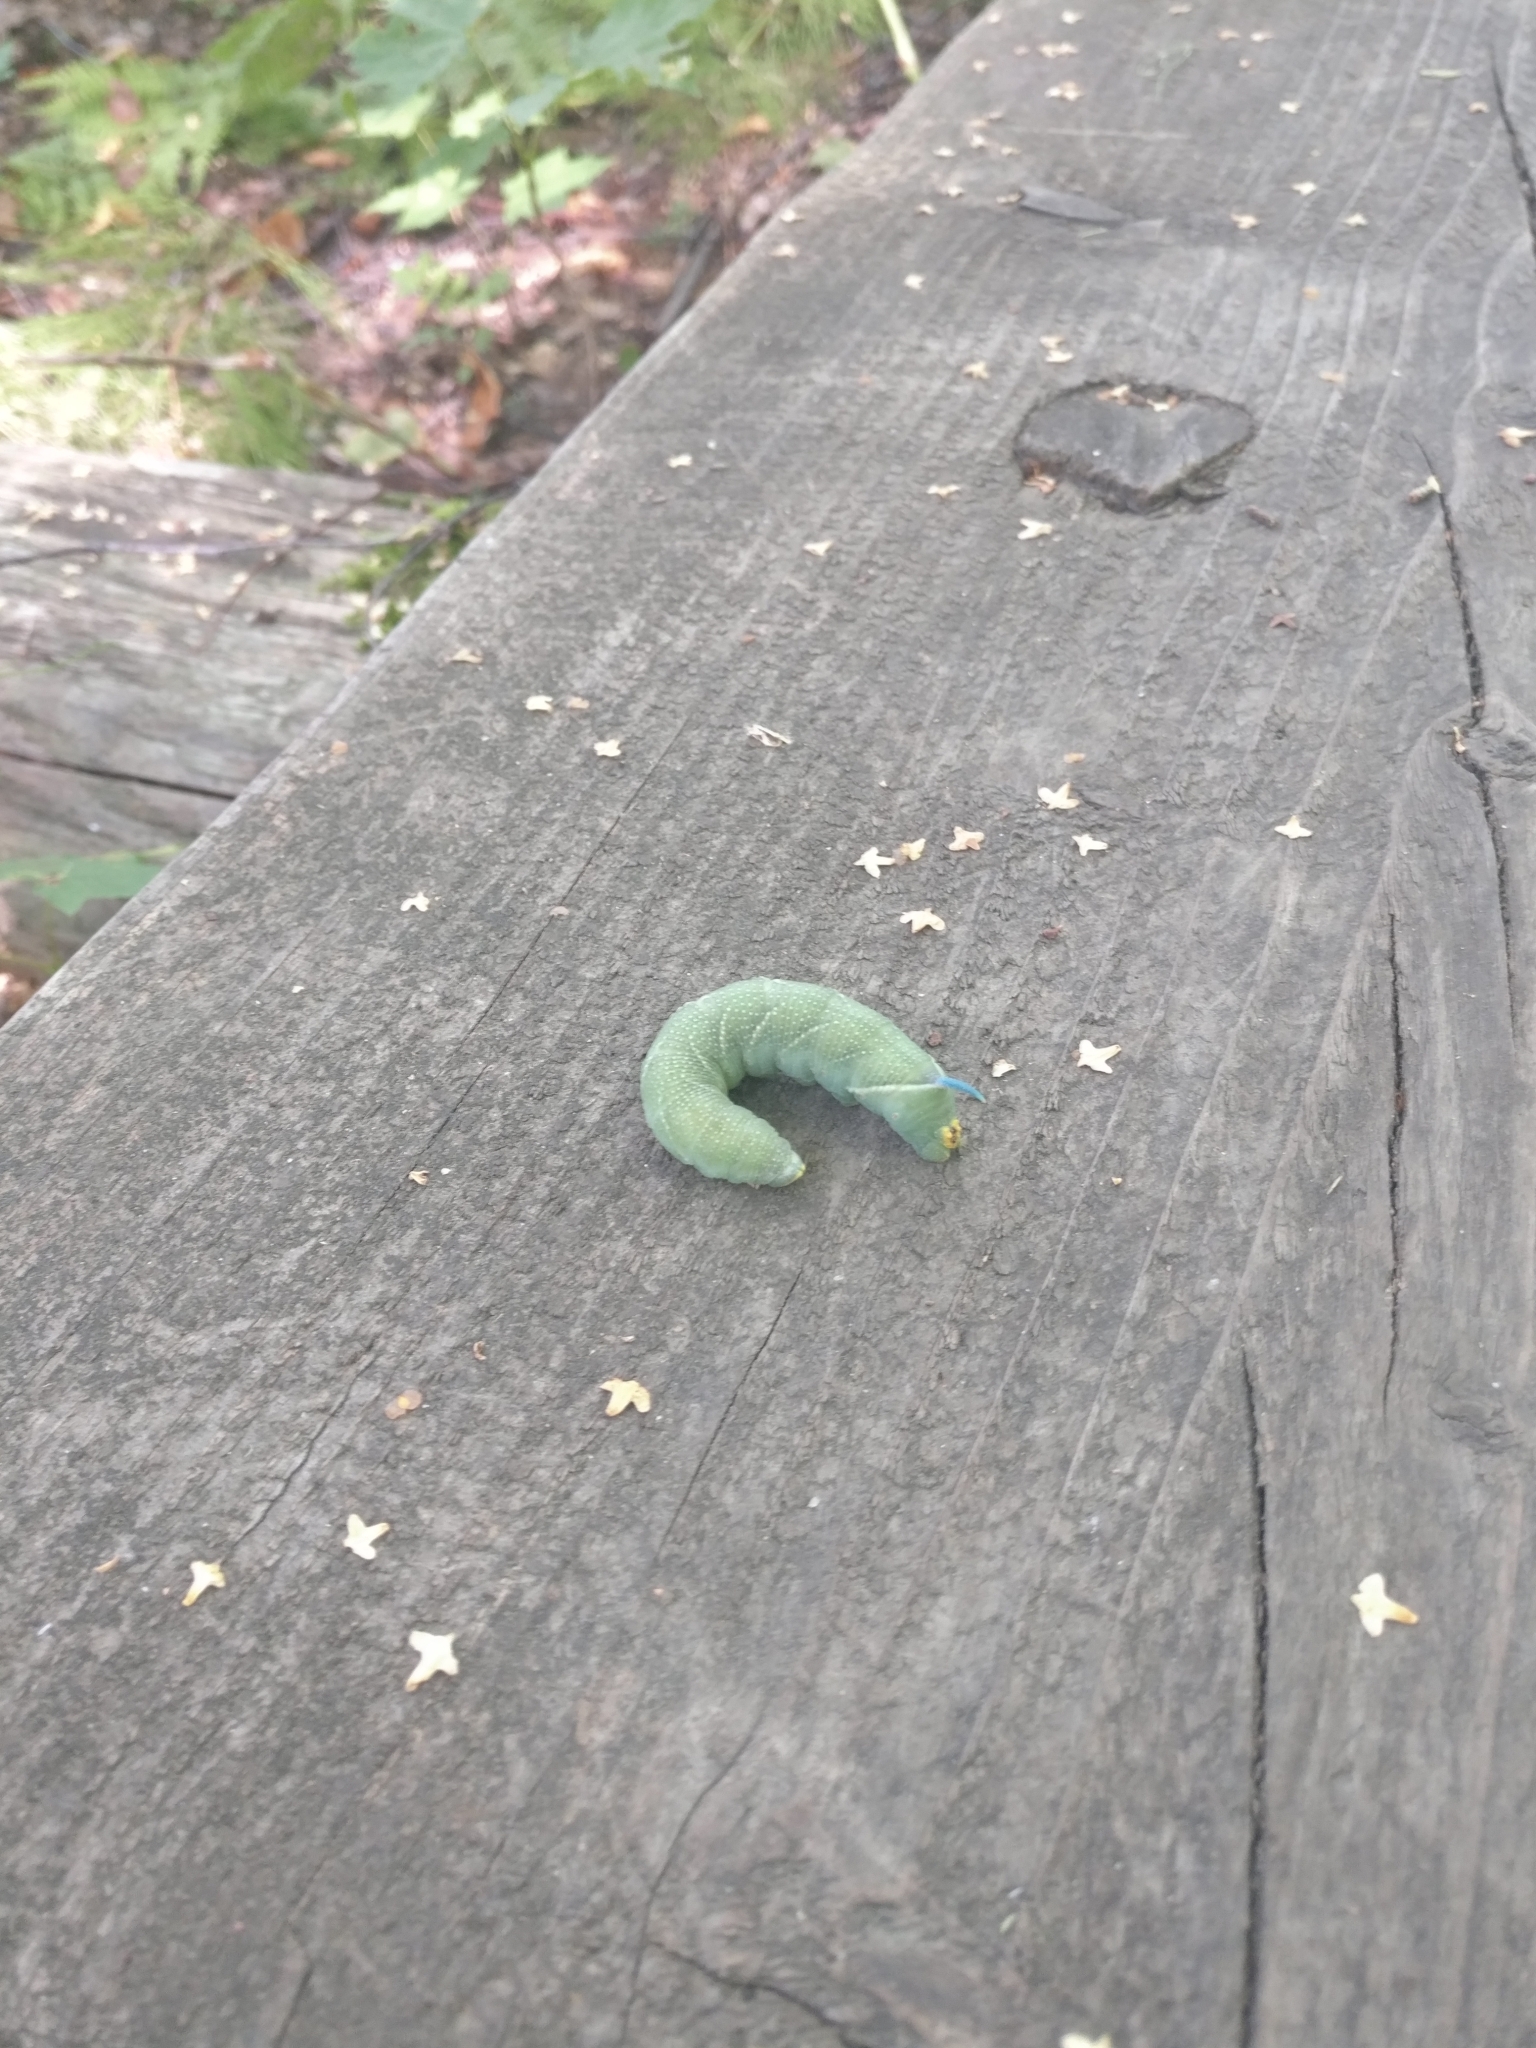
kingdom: Animalia
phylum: Arthropoda
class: Insecta
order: Lepidoptera
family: Sphingidae
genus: Mimas
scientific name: Mimas tiliae
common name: Lime hawk-moth
